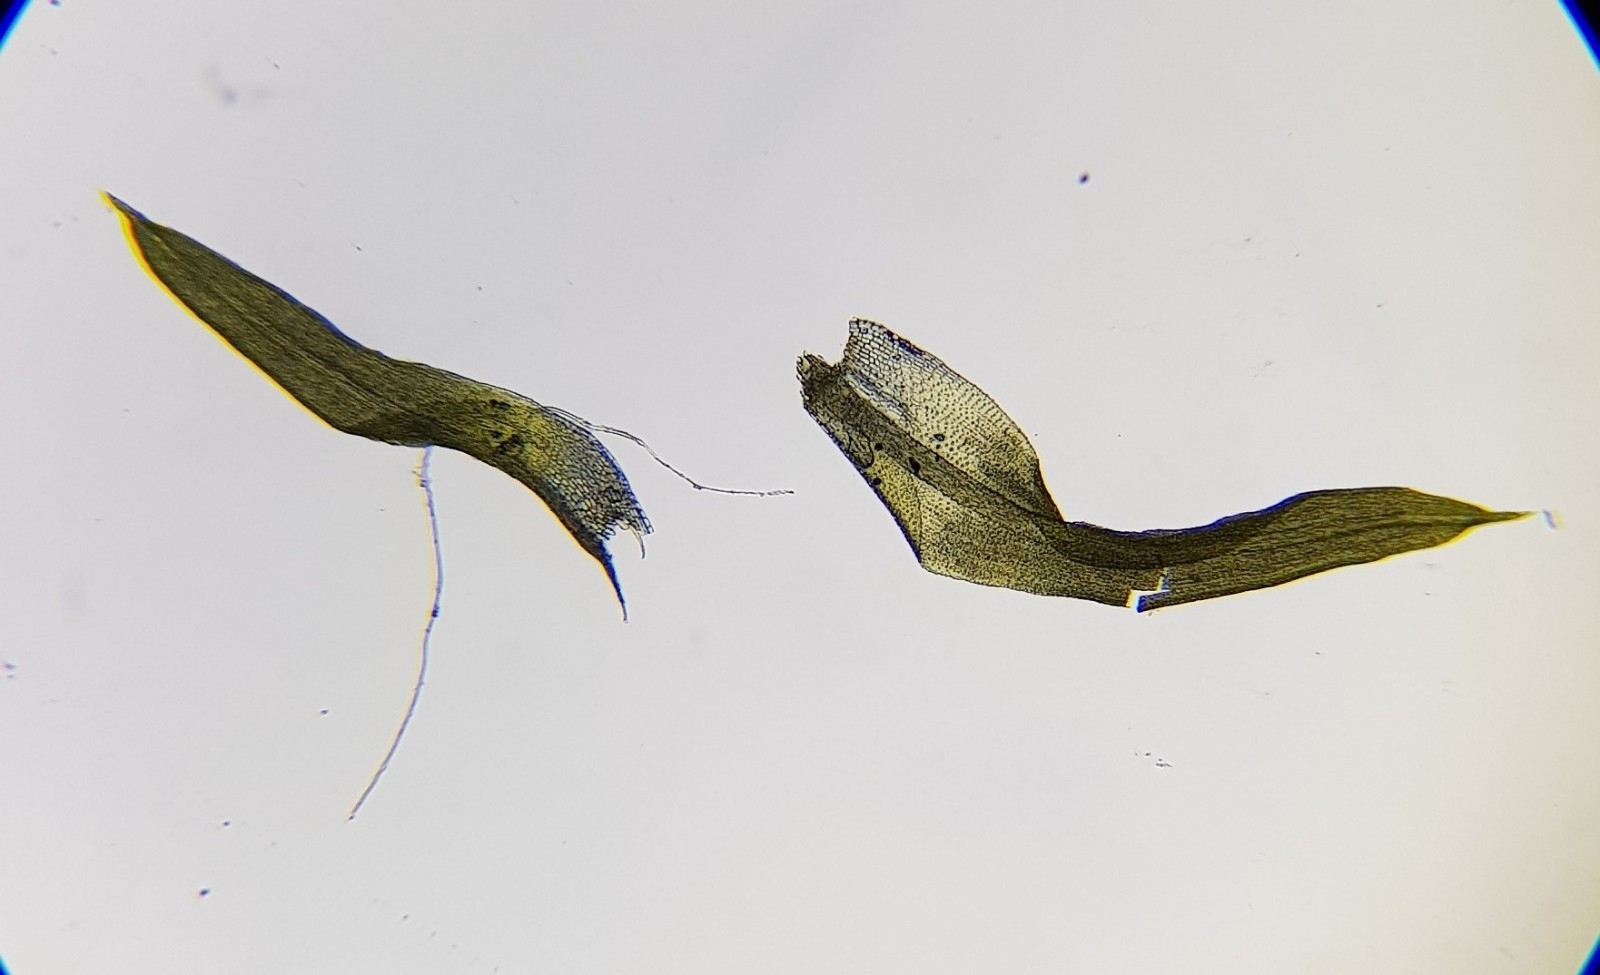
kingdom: Plantae
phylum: Bryophyta
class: Bryopsida
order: Pottiales
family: Pottiaceae
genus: Weissia
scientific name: Weissia controversa
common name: Green-tufted stubble moss
